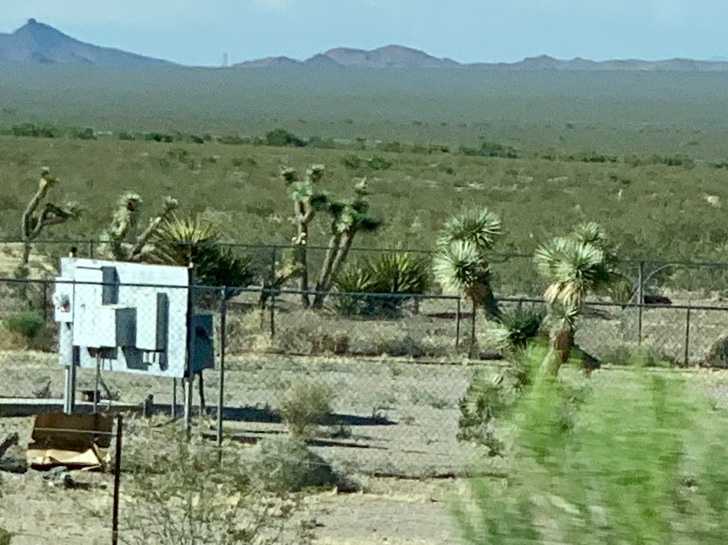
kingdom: Plantae
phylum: Tracheophyta
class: Liliopsida
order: Asparagales
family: Asparagaceae
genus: Yucca
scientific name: Yucca brevifolia
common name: Joshua tree
